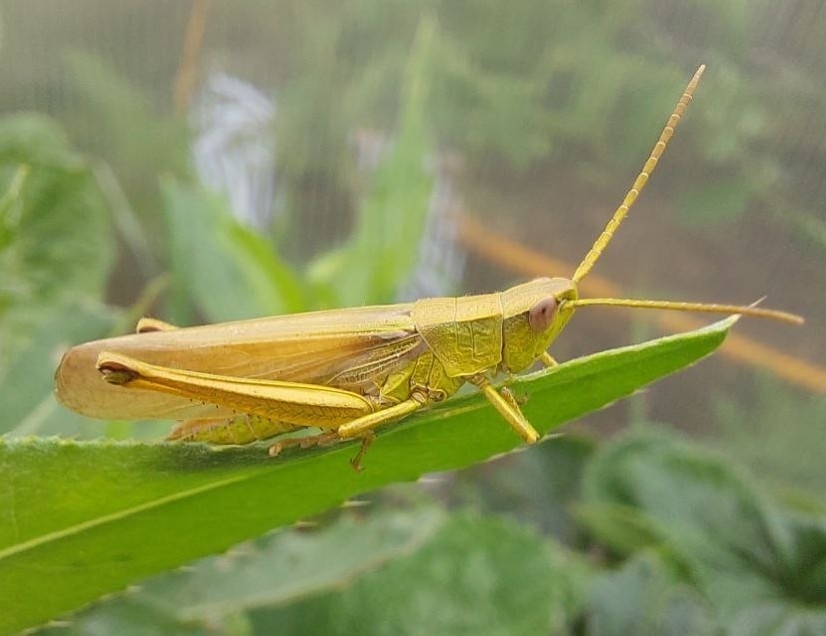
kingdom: Animalia
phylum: Arthropoda
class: Insecta
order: Orthoptera
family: Acrididae
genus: Chrysochraon
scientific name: Chrysochraon dispar
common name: Large gold grasshopper
